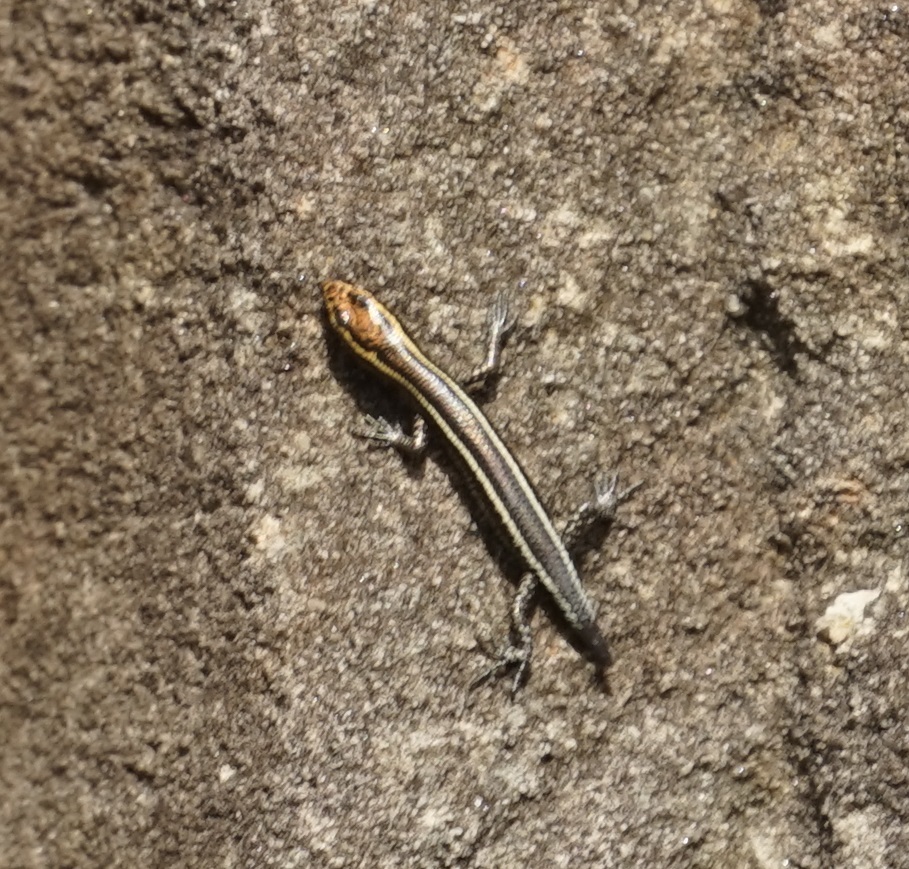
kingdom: Animalia
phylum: Chordata
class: Squamata
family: Scincidae
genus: Cryptoblepharus
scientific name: Cryptoblepharus pulcher
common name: Elegant snake-eyed skink
